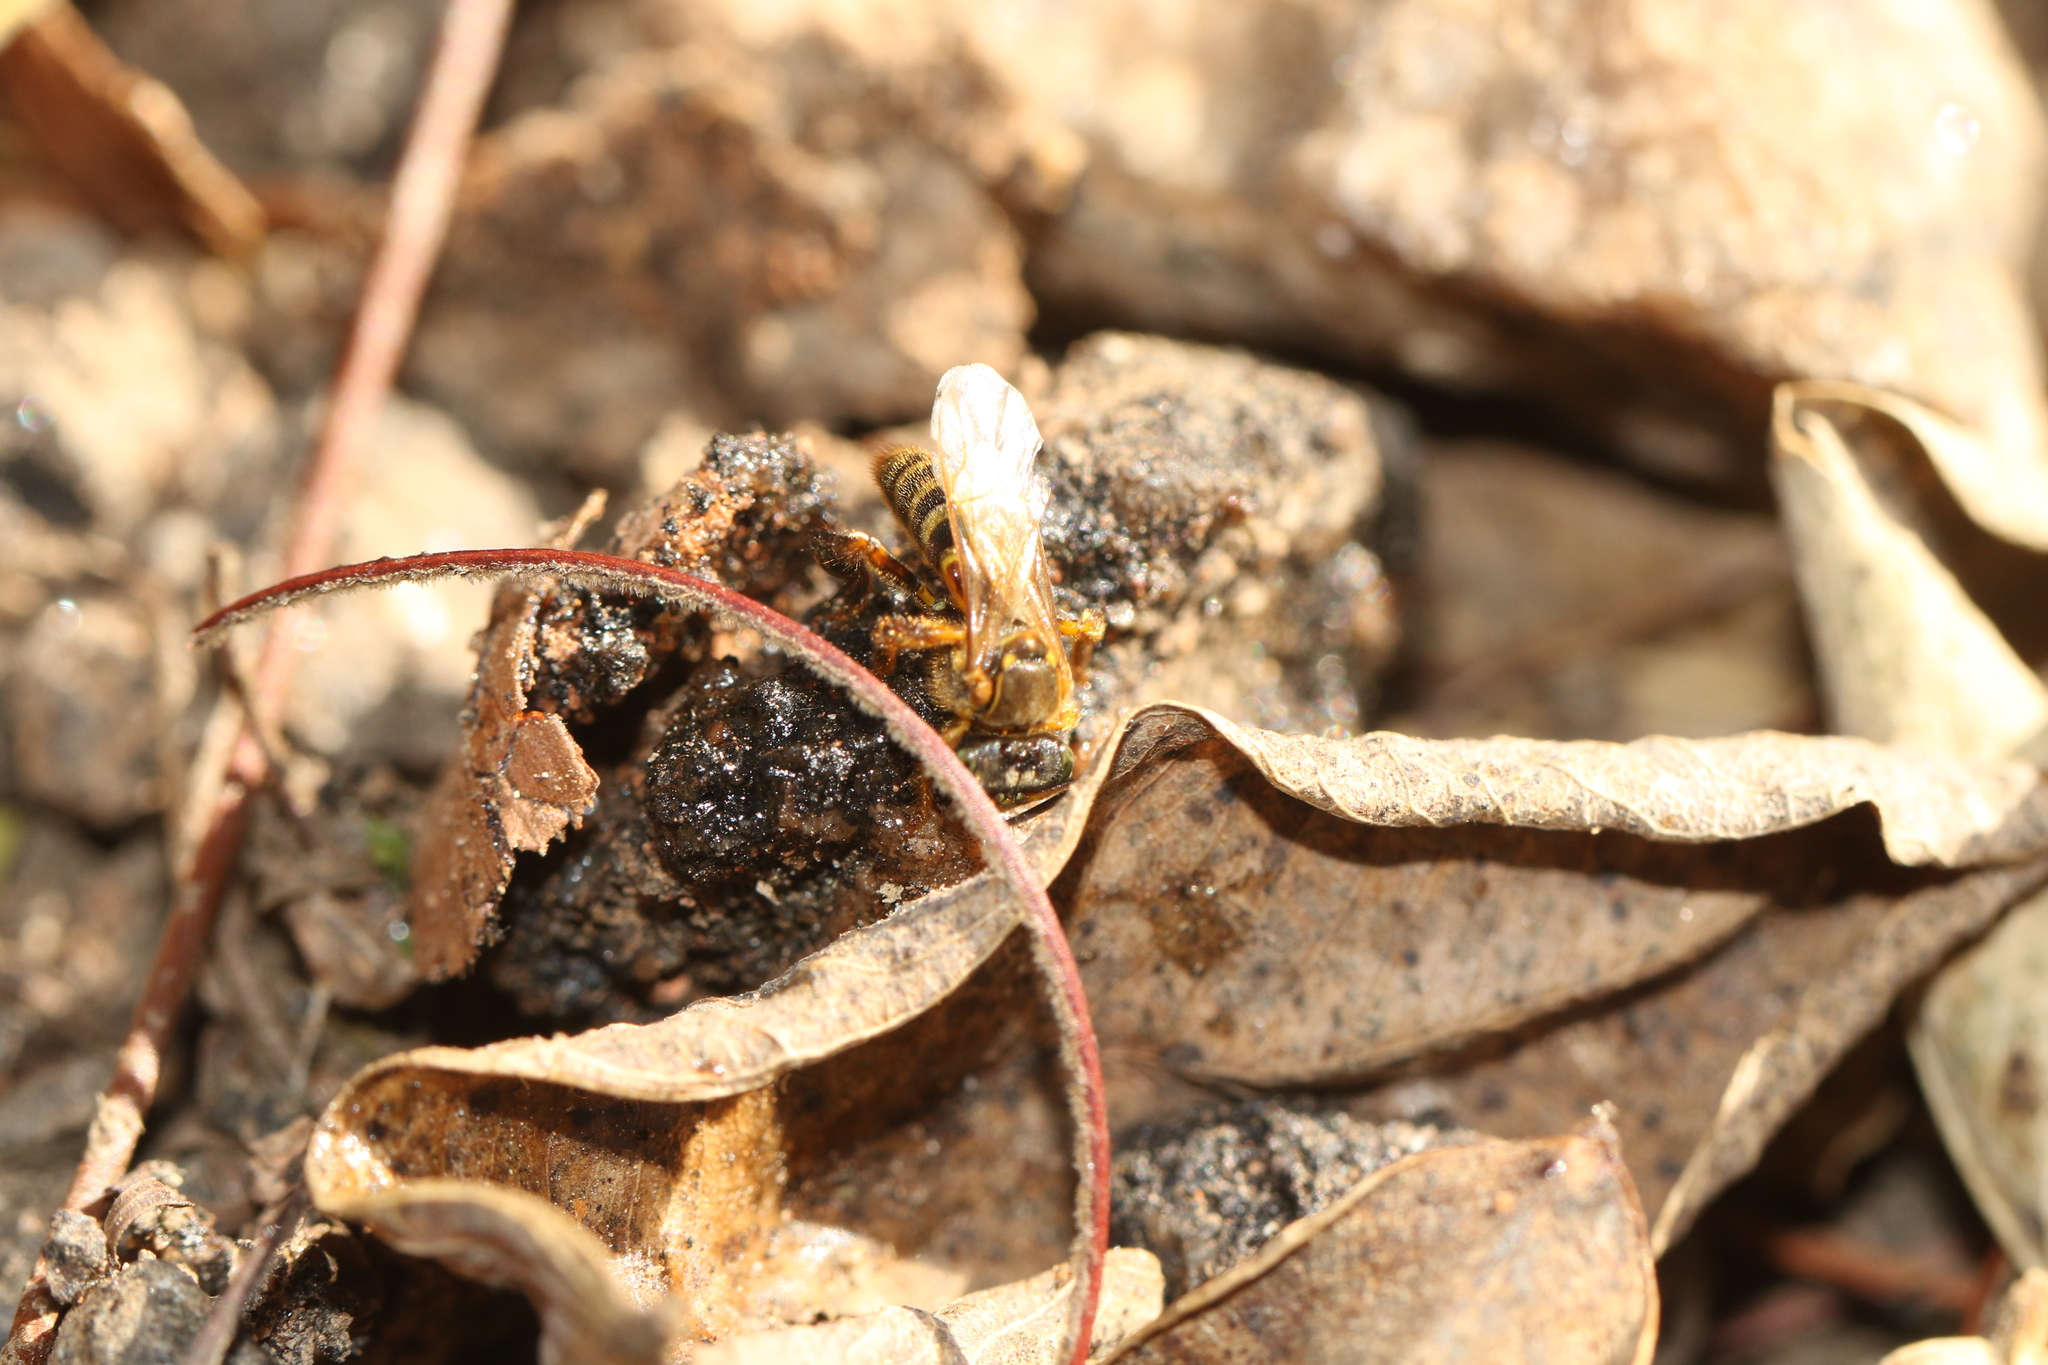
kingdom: Animalia
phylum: Arthropoda
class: Insecta
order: Hymenoptera
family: Apidae
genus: Tetragona
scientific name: Tetragona clavipes
